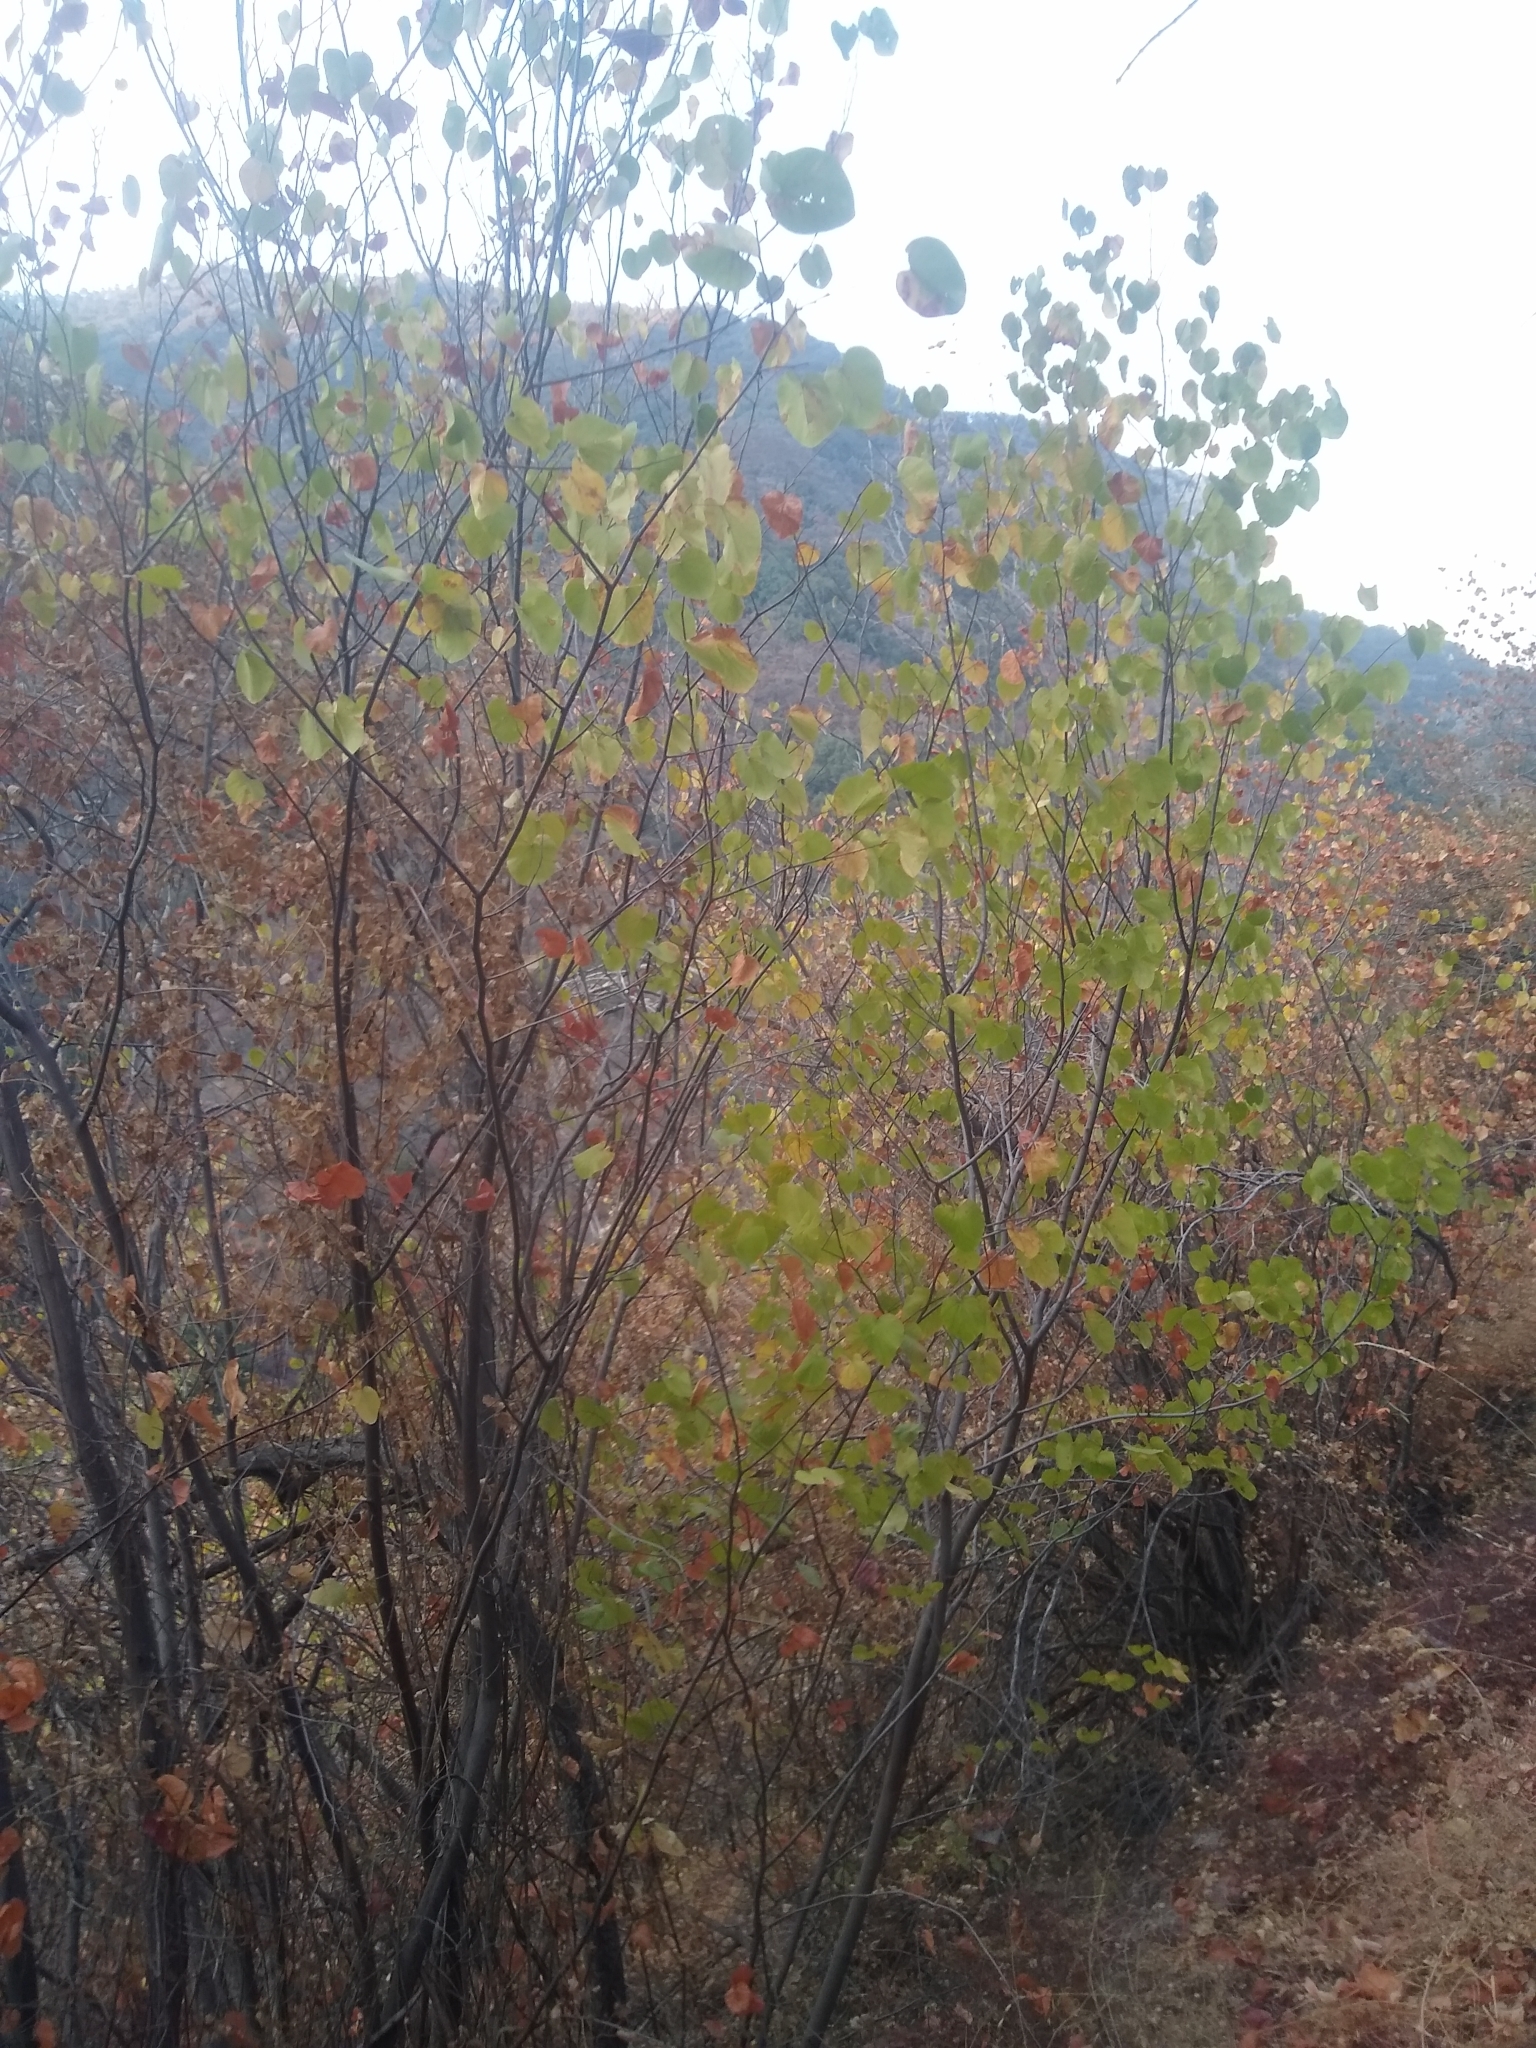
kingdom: Plantae
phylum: Tracheophyta
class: Magnoliopsida
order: Fabales
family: Fabaceae
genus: Cercis
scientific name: Cercis occidentalis
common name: California redbud
